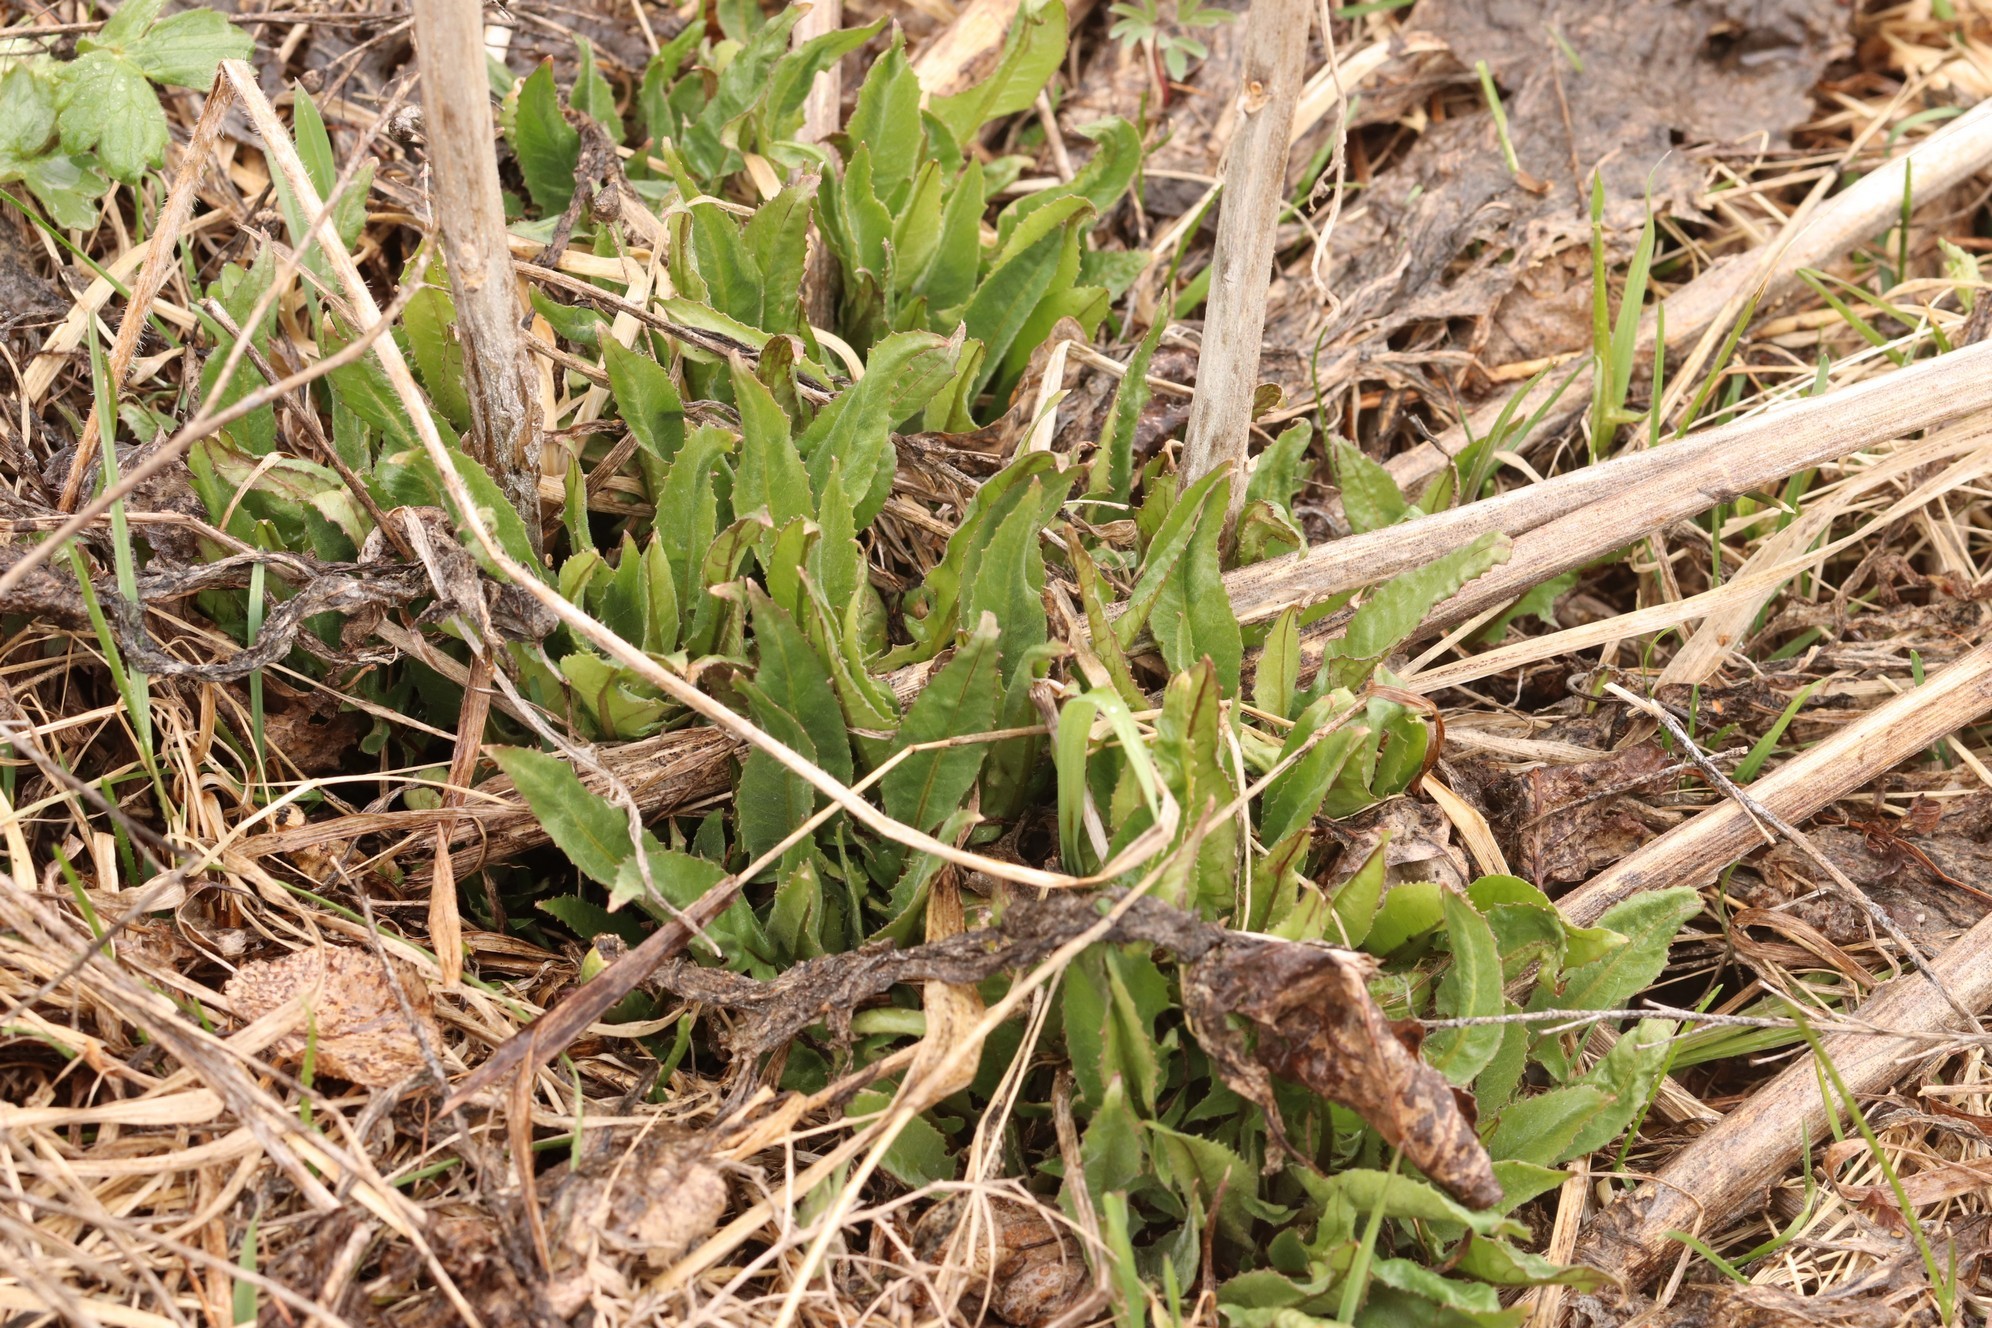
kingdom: Plantae
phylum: Tracheophyta
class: Magnoliopsida
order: Asterales
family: Asteraceae
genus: Alfredia
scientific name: Alfredia cernua
